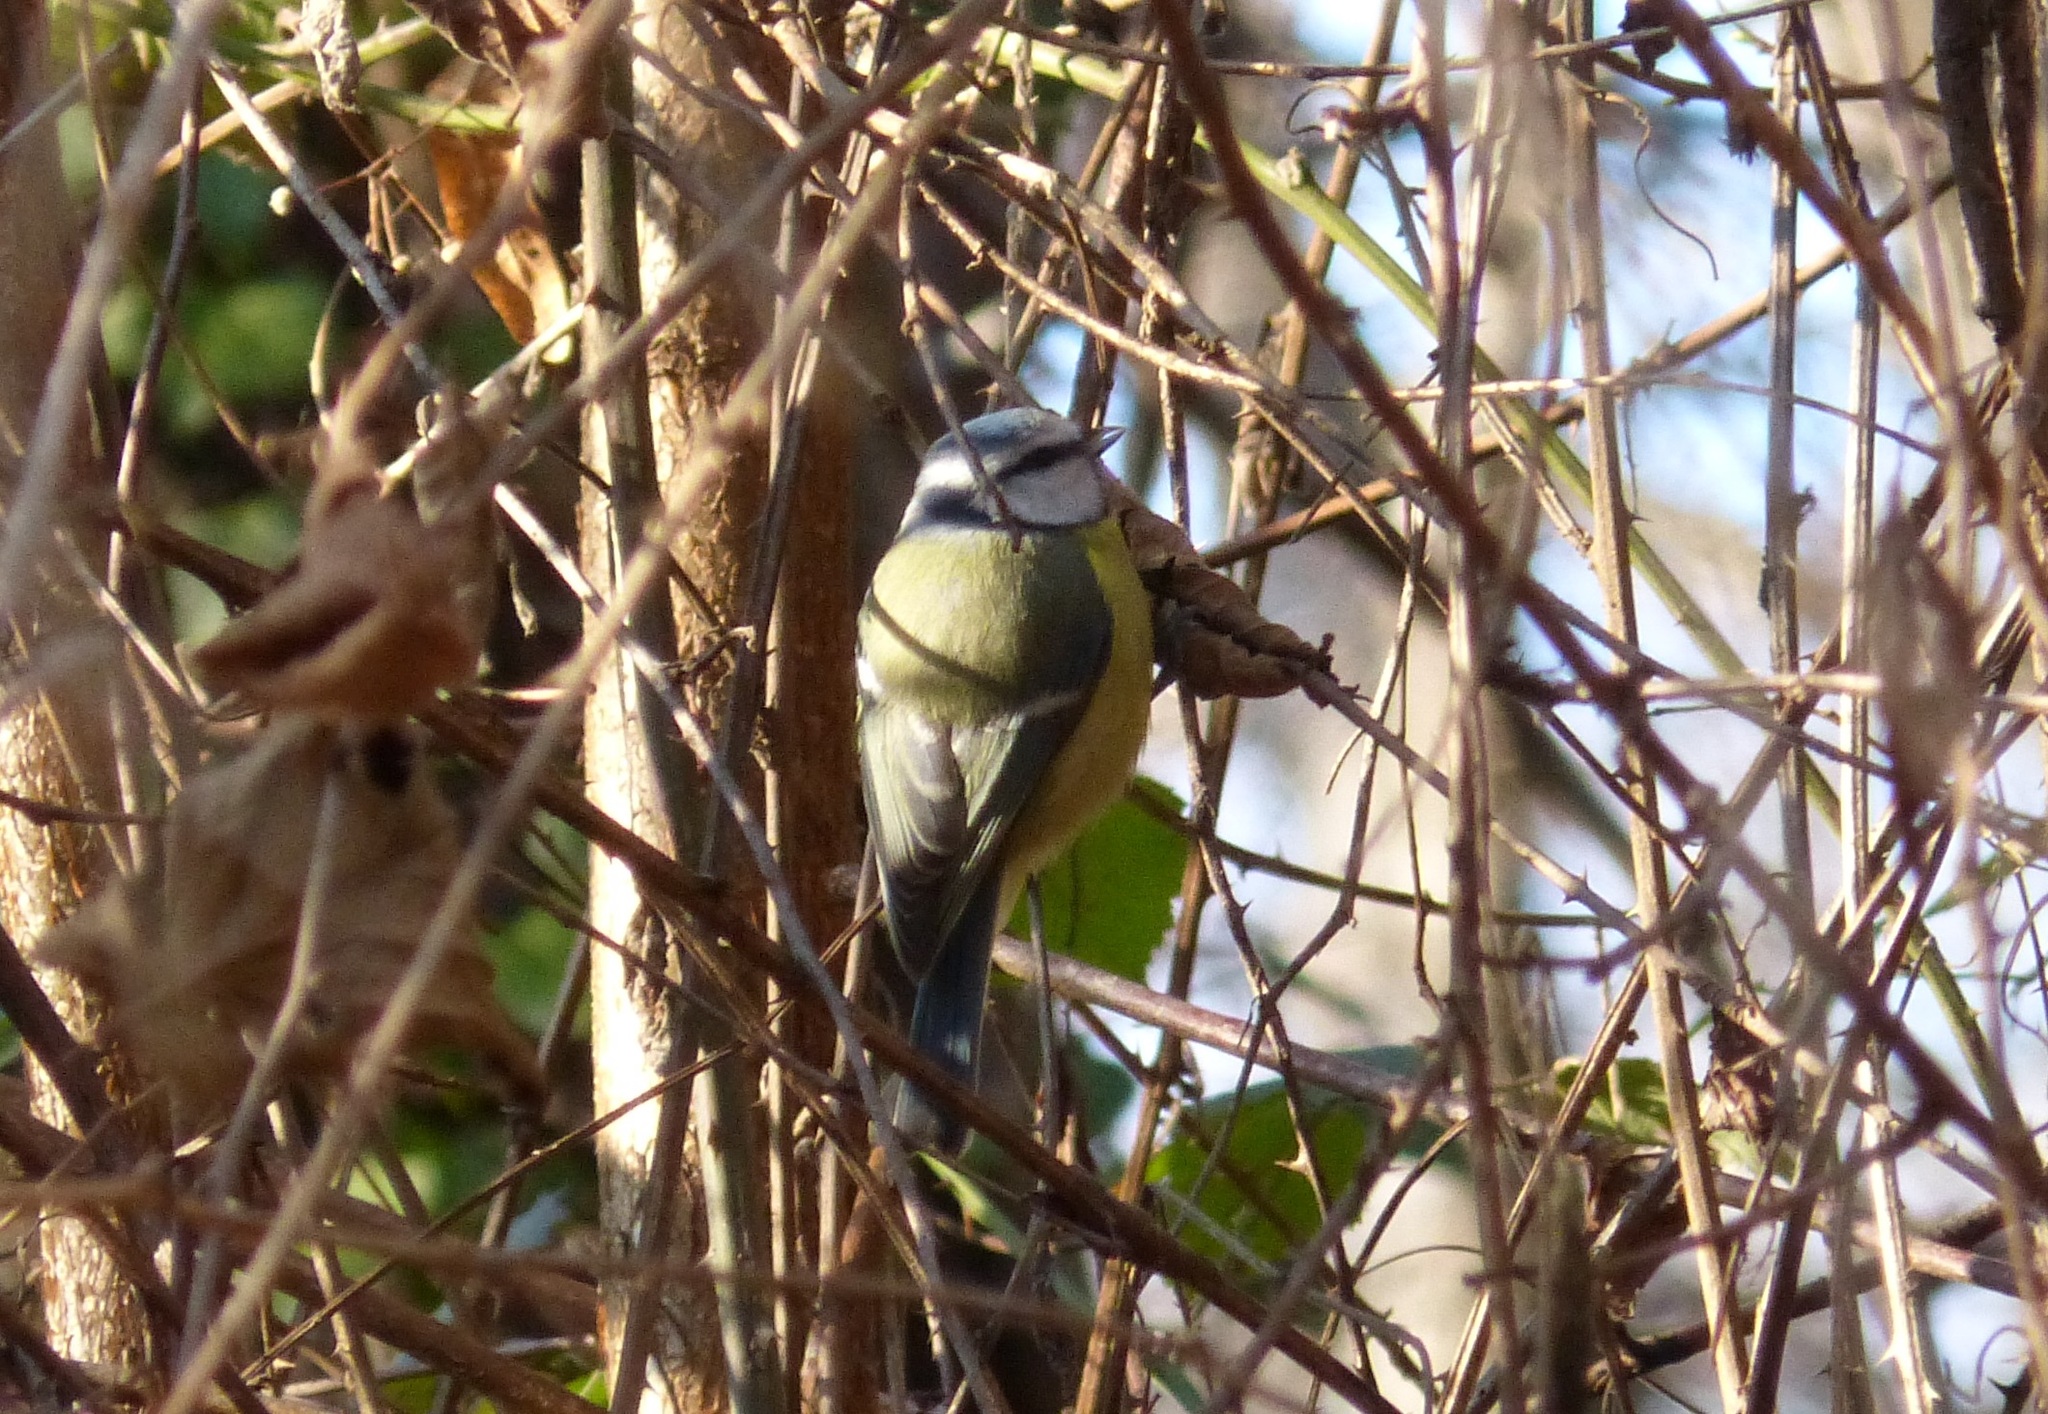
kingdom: Animalia
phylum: Chordata
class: Aves
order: Passeriformes
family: Paridae
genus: Cyanistes
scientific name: Cyanistes caeruleus
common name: Eurasian blue tit
